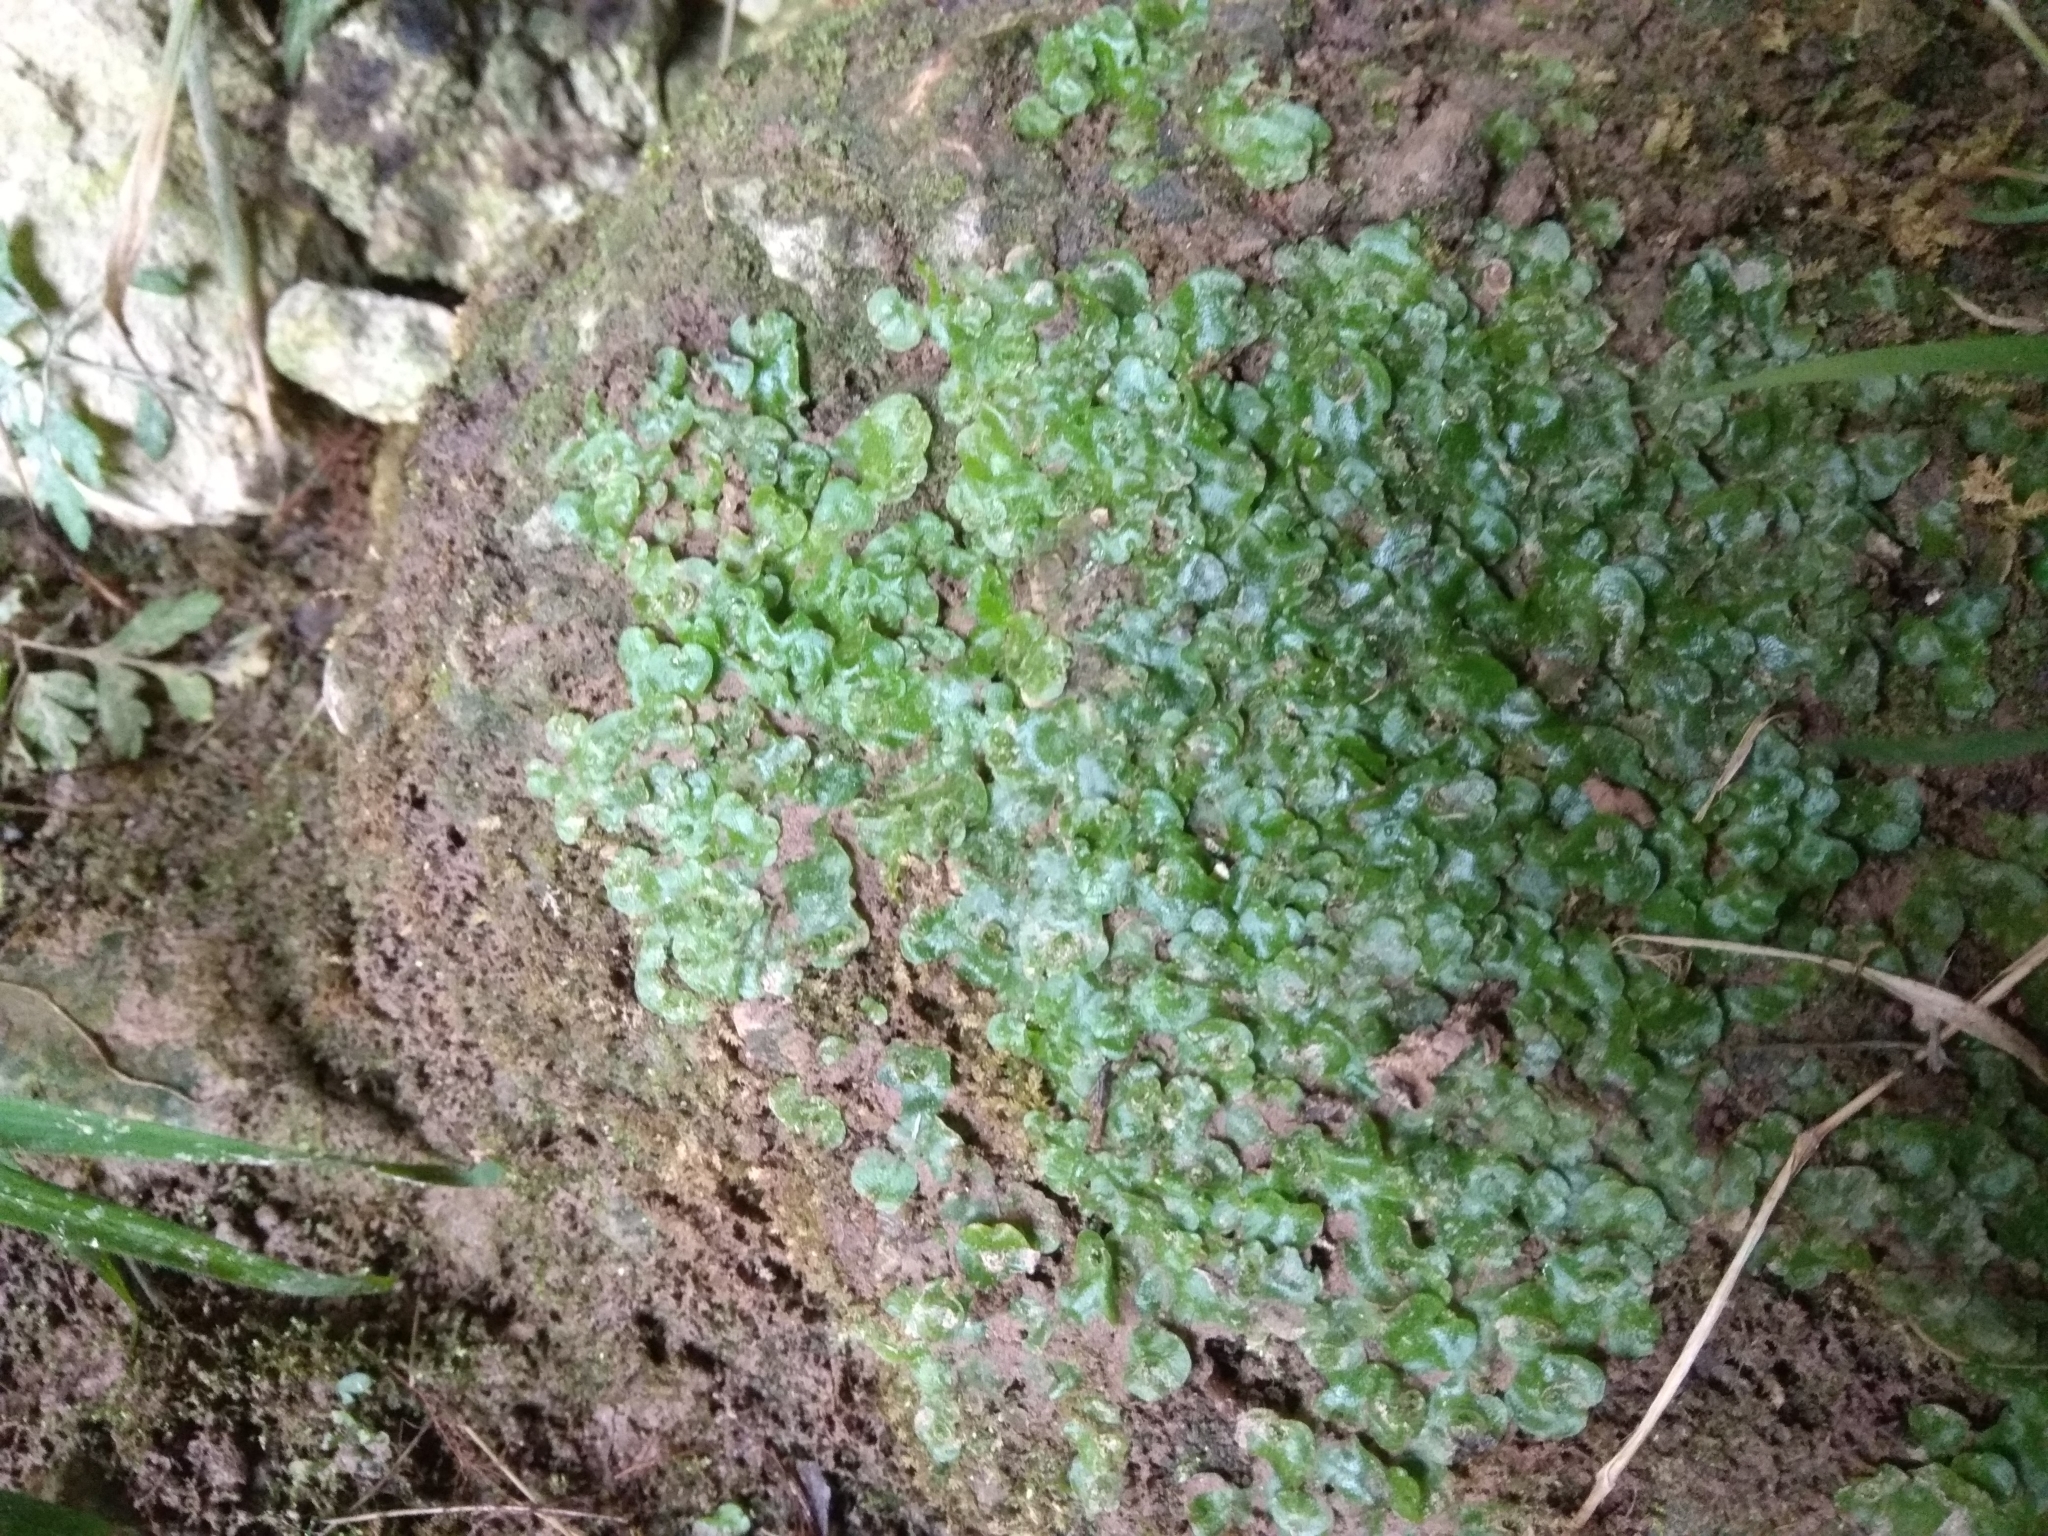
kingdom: Plantae
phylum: Marchantiophyta
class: Marchantiopsida
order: Lunulariales
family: Lunulariaceae
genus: Lunularia
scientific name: Lunularia cruciata
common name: Crescent-cup liverwort
